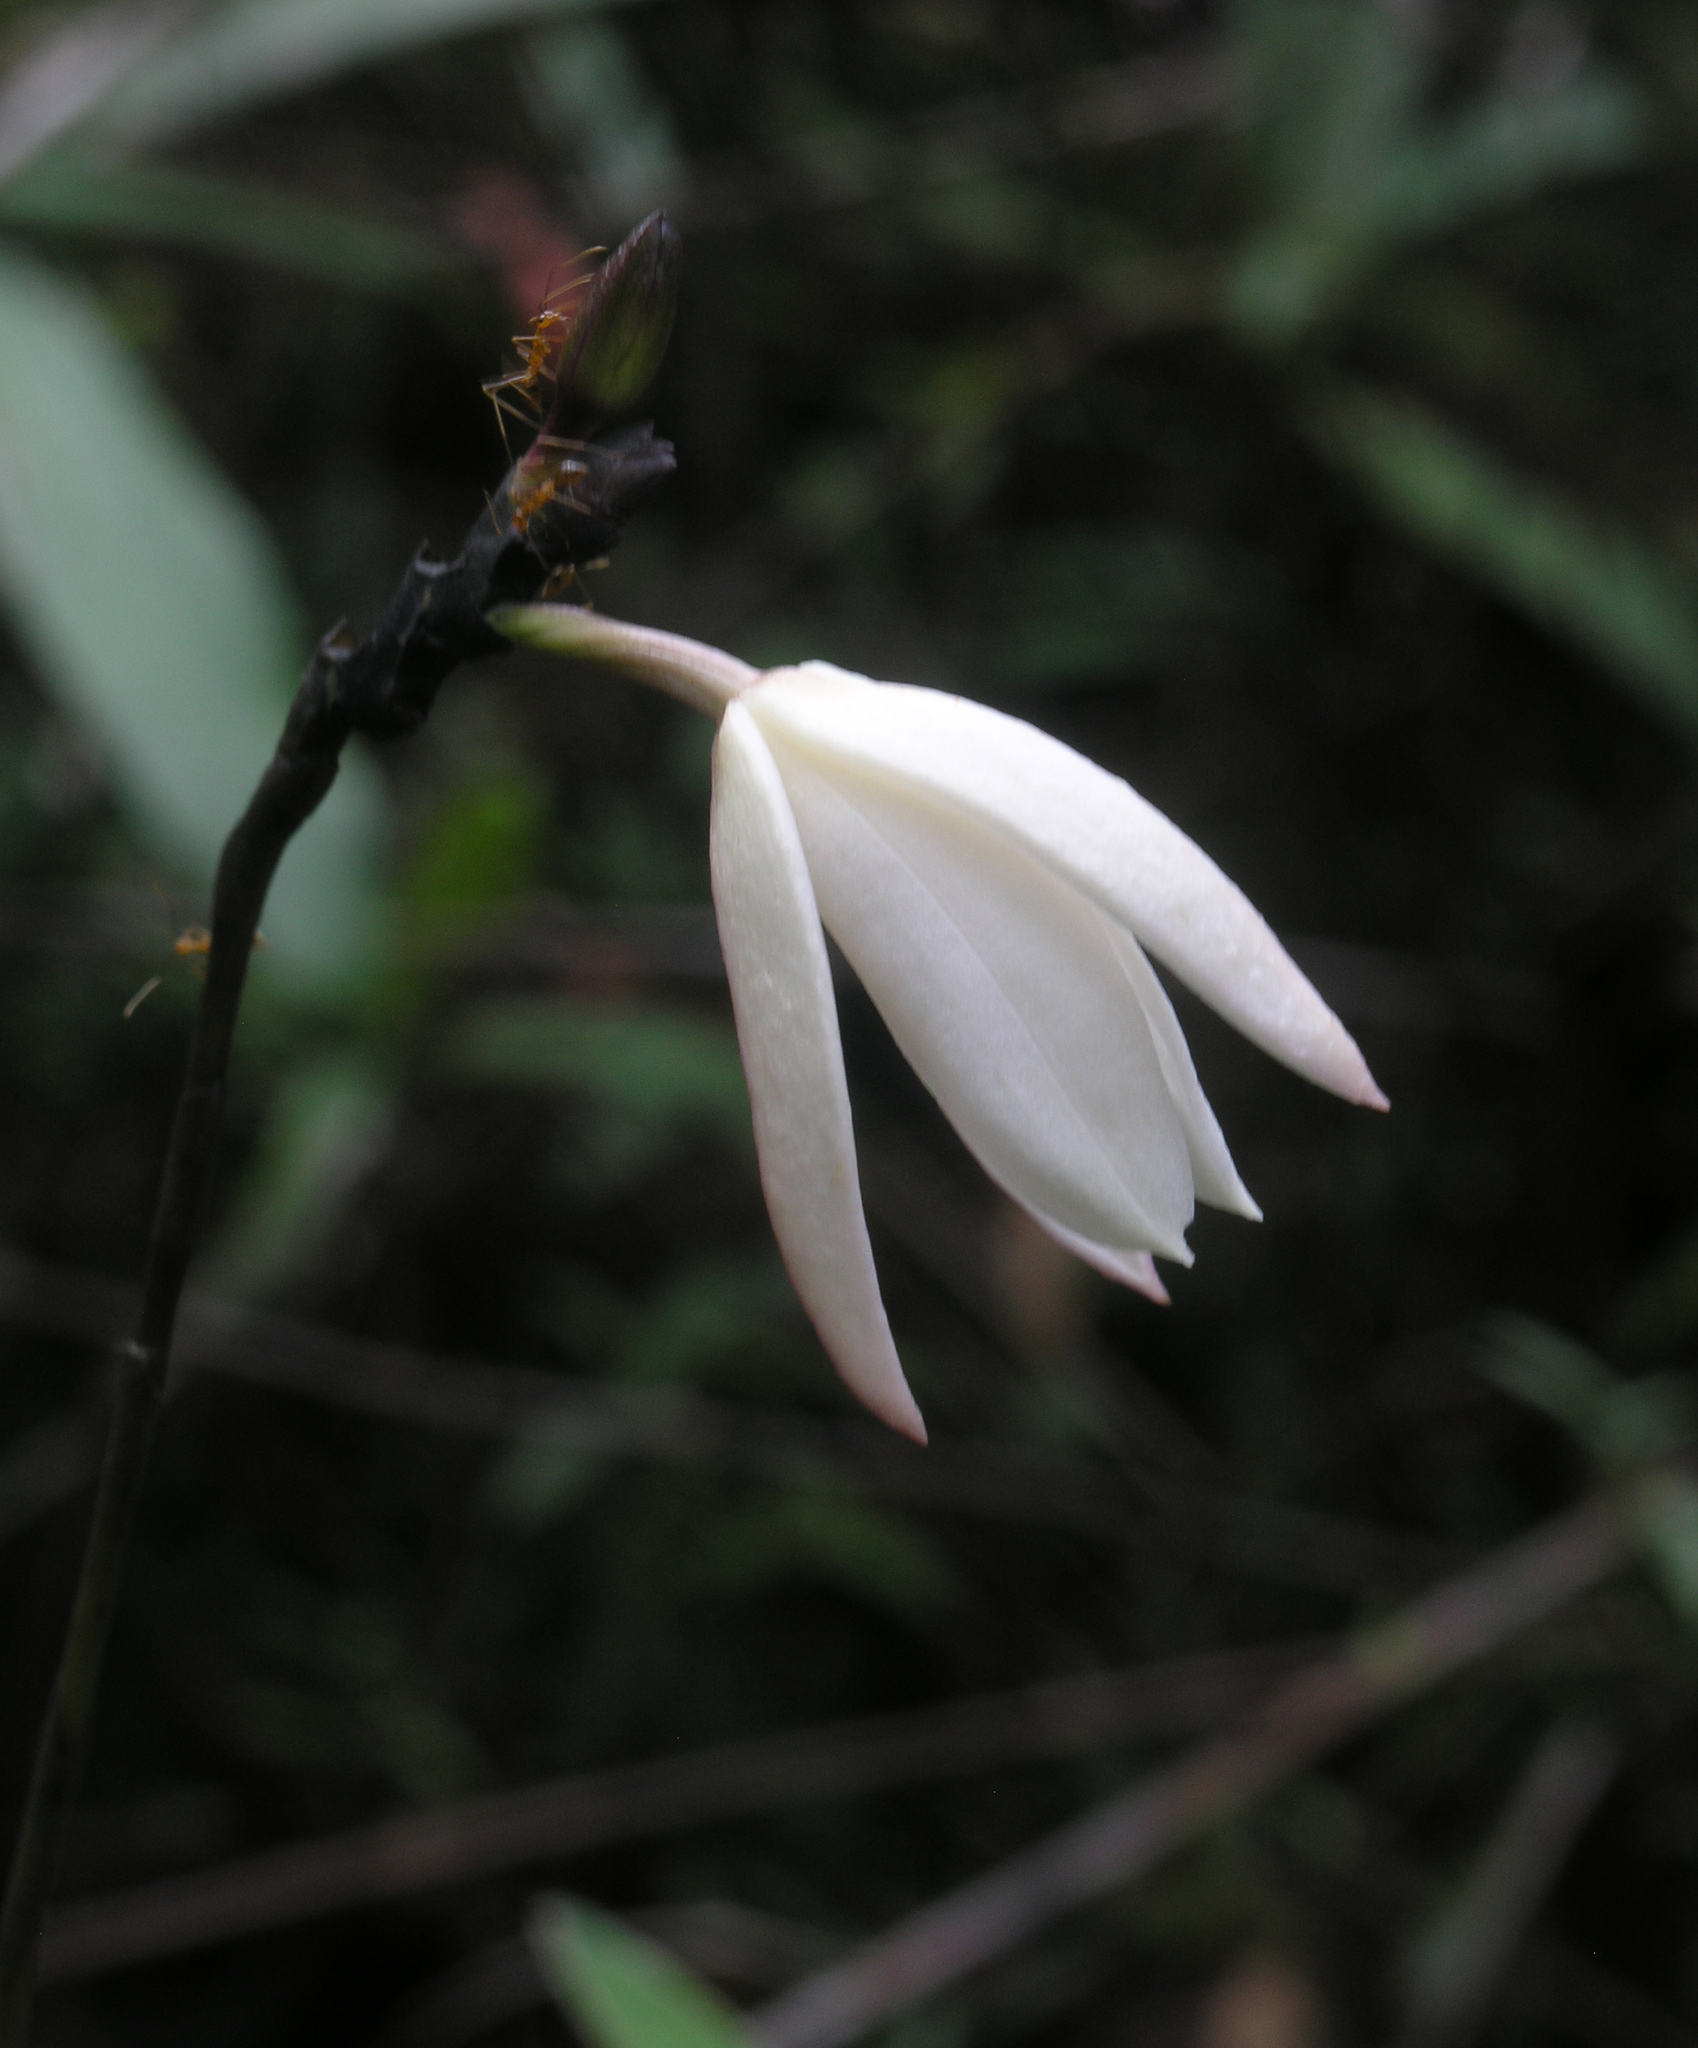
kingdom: Plantae
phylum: Tracheophyta
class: Liliopsida
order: Asparagales
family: Orchidaceae
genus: Bromheadia
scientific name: Bromheadia finlaysoniana
